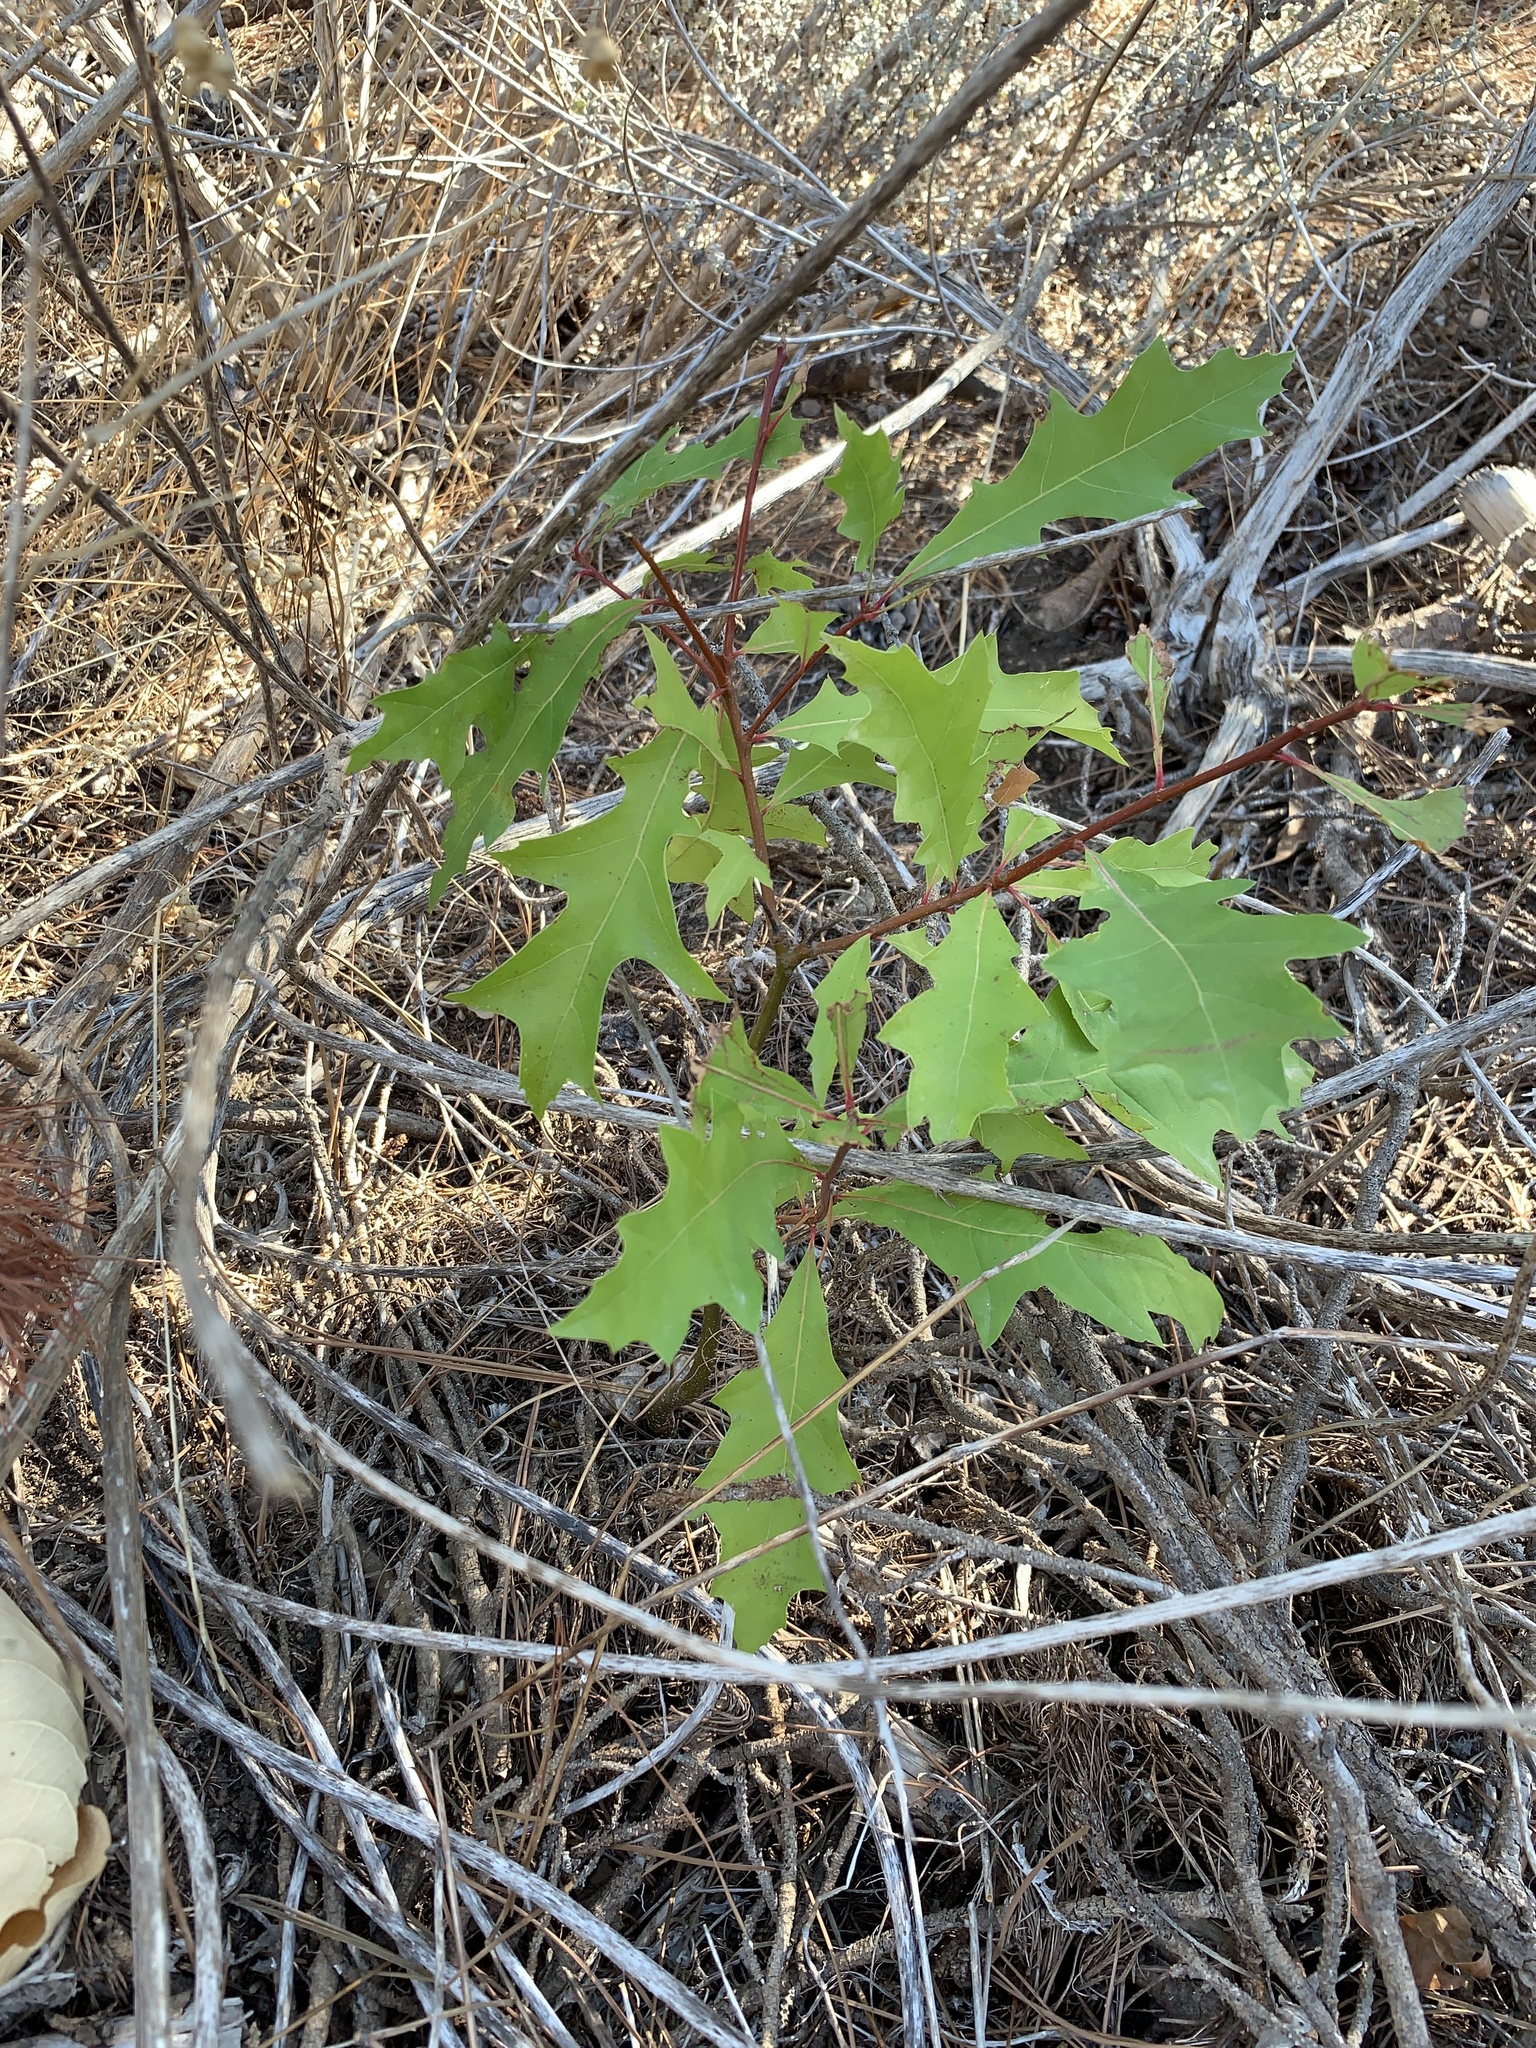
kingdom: Plantae
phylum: Tracheophyta
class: Magnoliopsida
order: Fagales
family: Fagaceae
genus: Quercus
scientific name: Quercus palustris
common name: Pin oak
